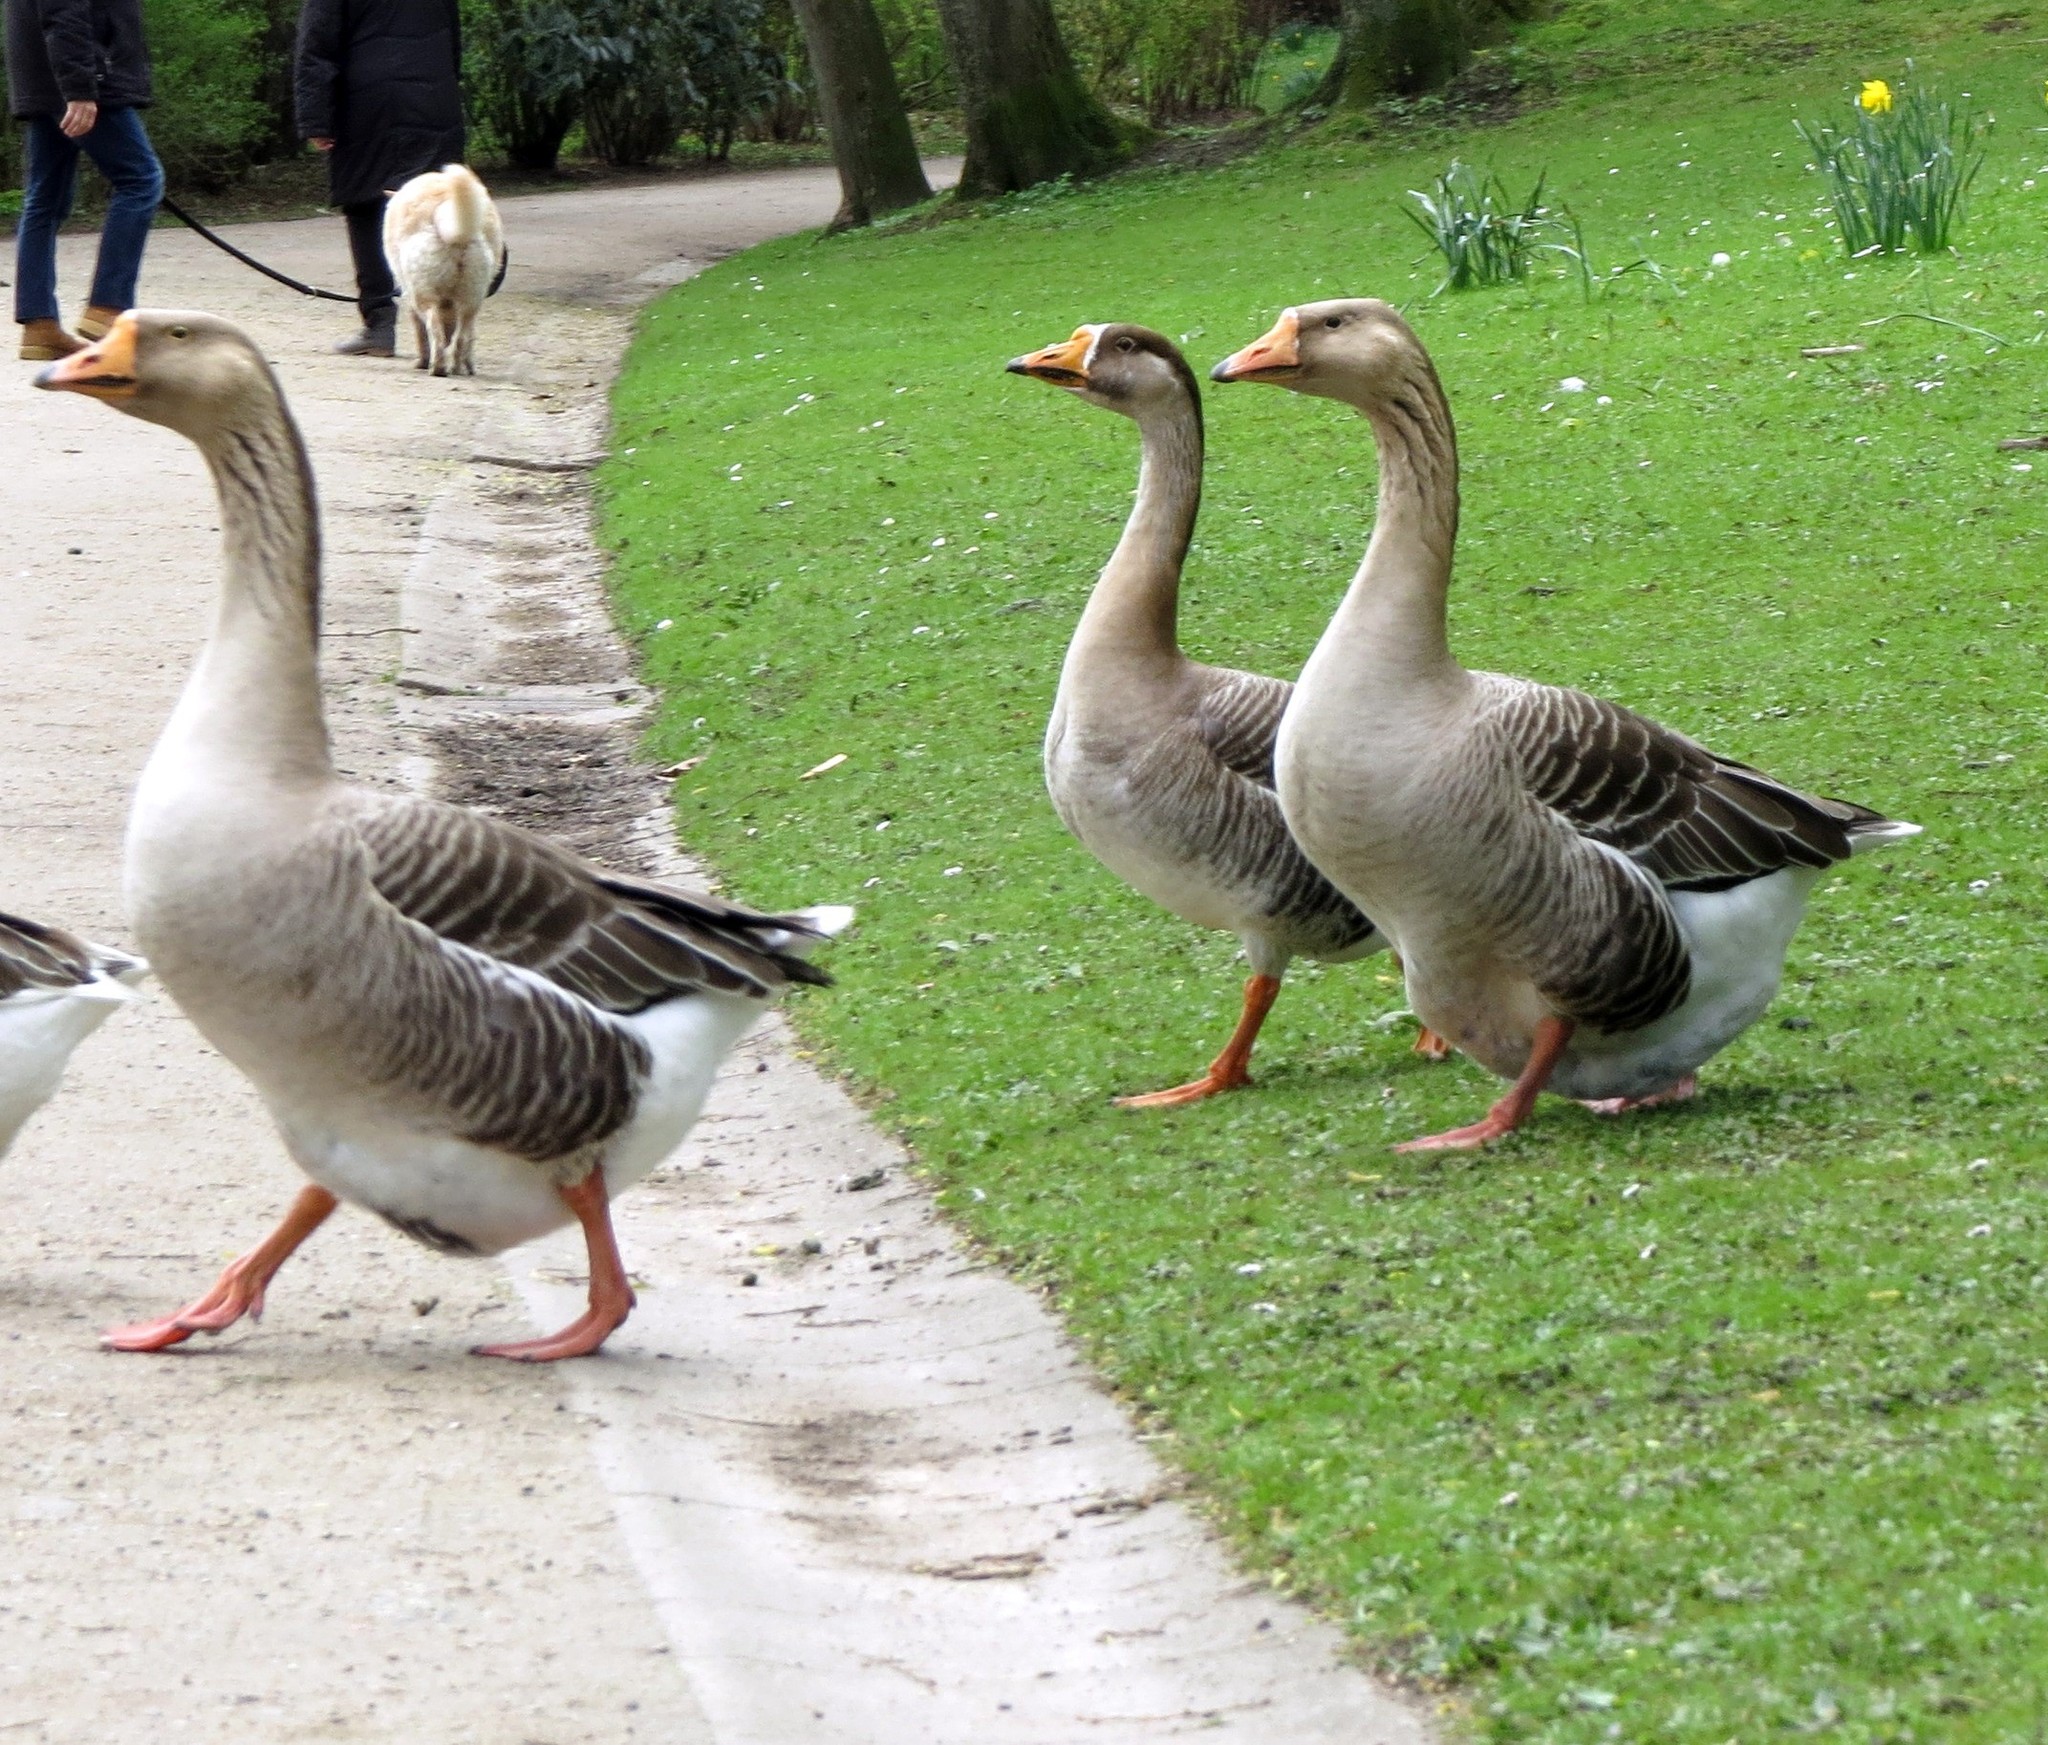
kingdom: Animalia
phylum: Chordata
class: Aves
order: Anseriformes
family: Anatidae
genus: Anser
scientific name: Anser
